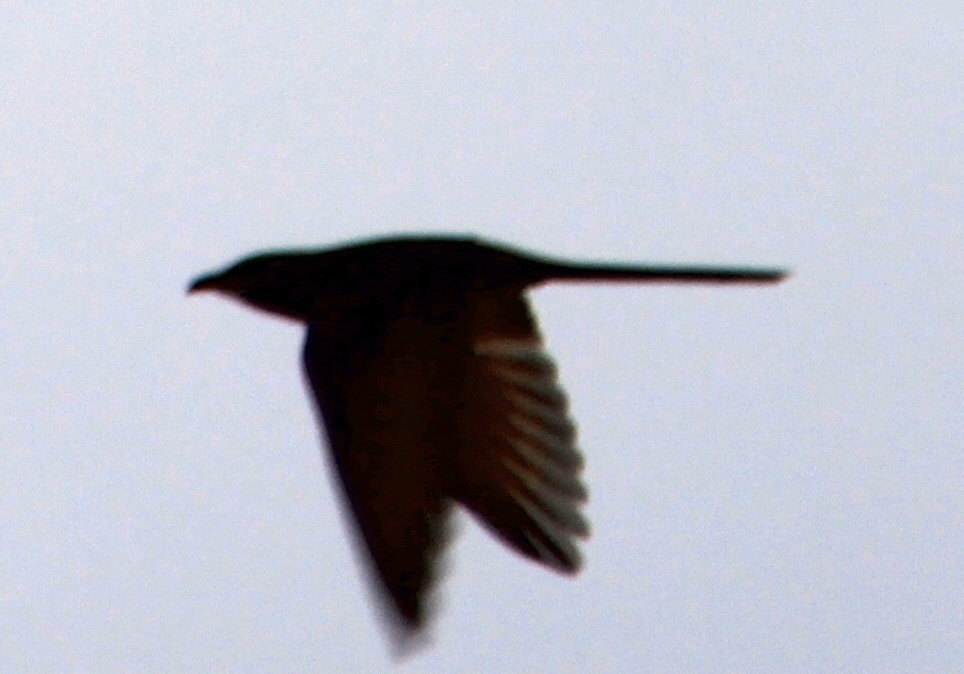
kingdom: Animalia
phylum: Chordata
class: Aves
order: Cuculiformes
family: Cuculidae
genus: Coccyzus
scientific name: Coccyzus americanus
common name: Yellow-billed cuckoo
